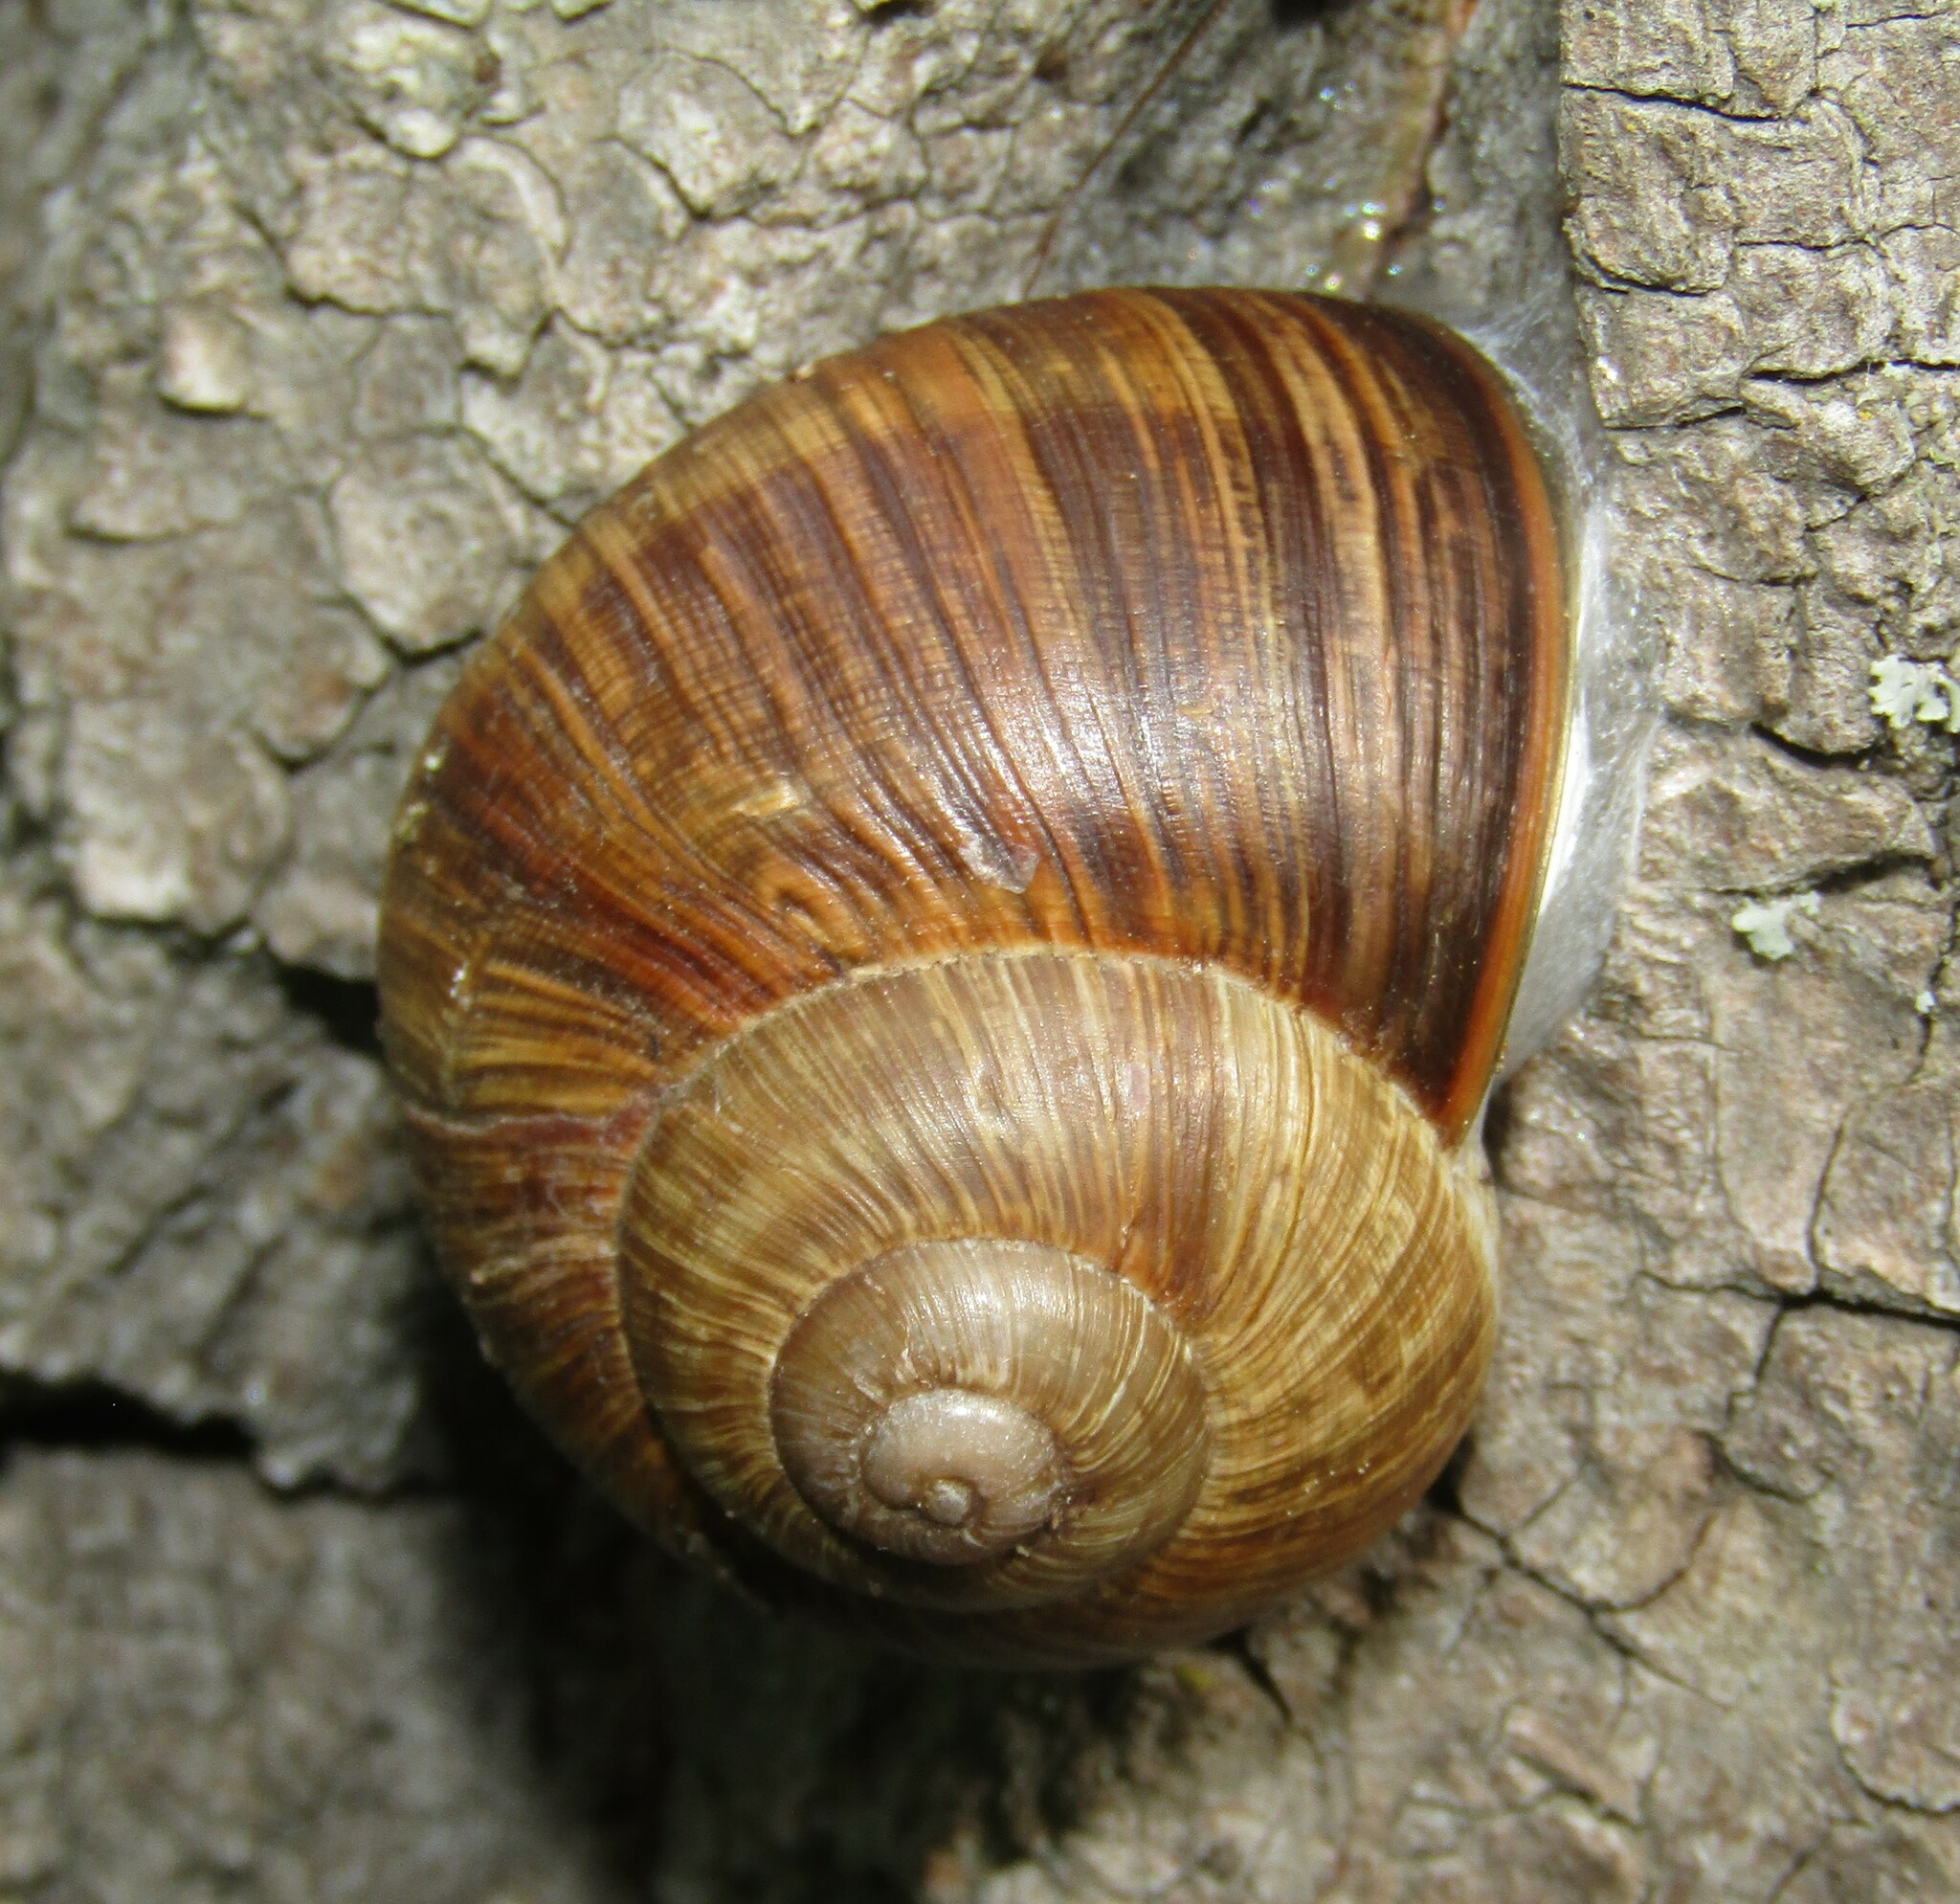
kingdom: Animalia
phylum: Mollusca
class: Gastropoda
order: Stylommatophora
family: Helicidae
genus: Helix
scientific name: Helix pomatia
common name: Roman snail
